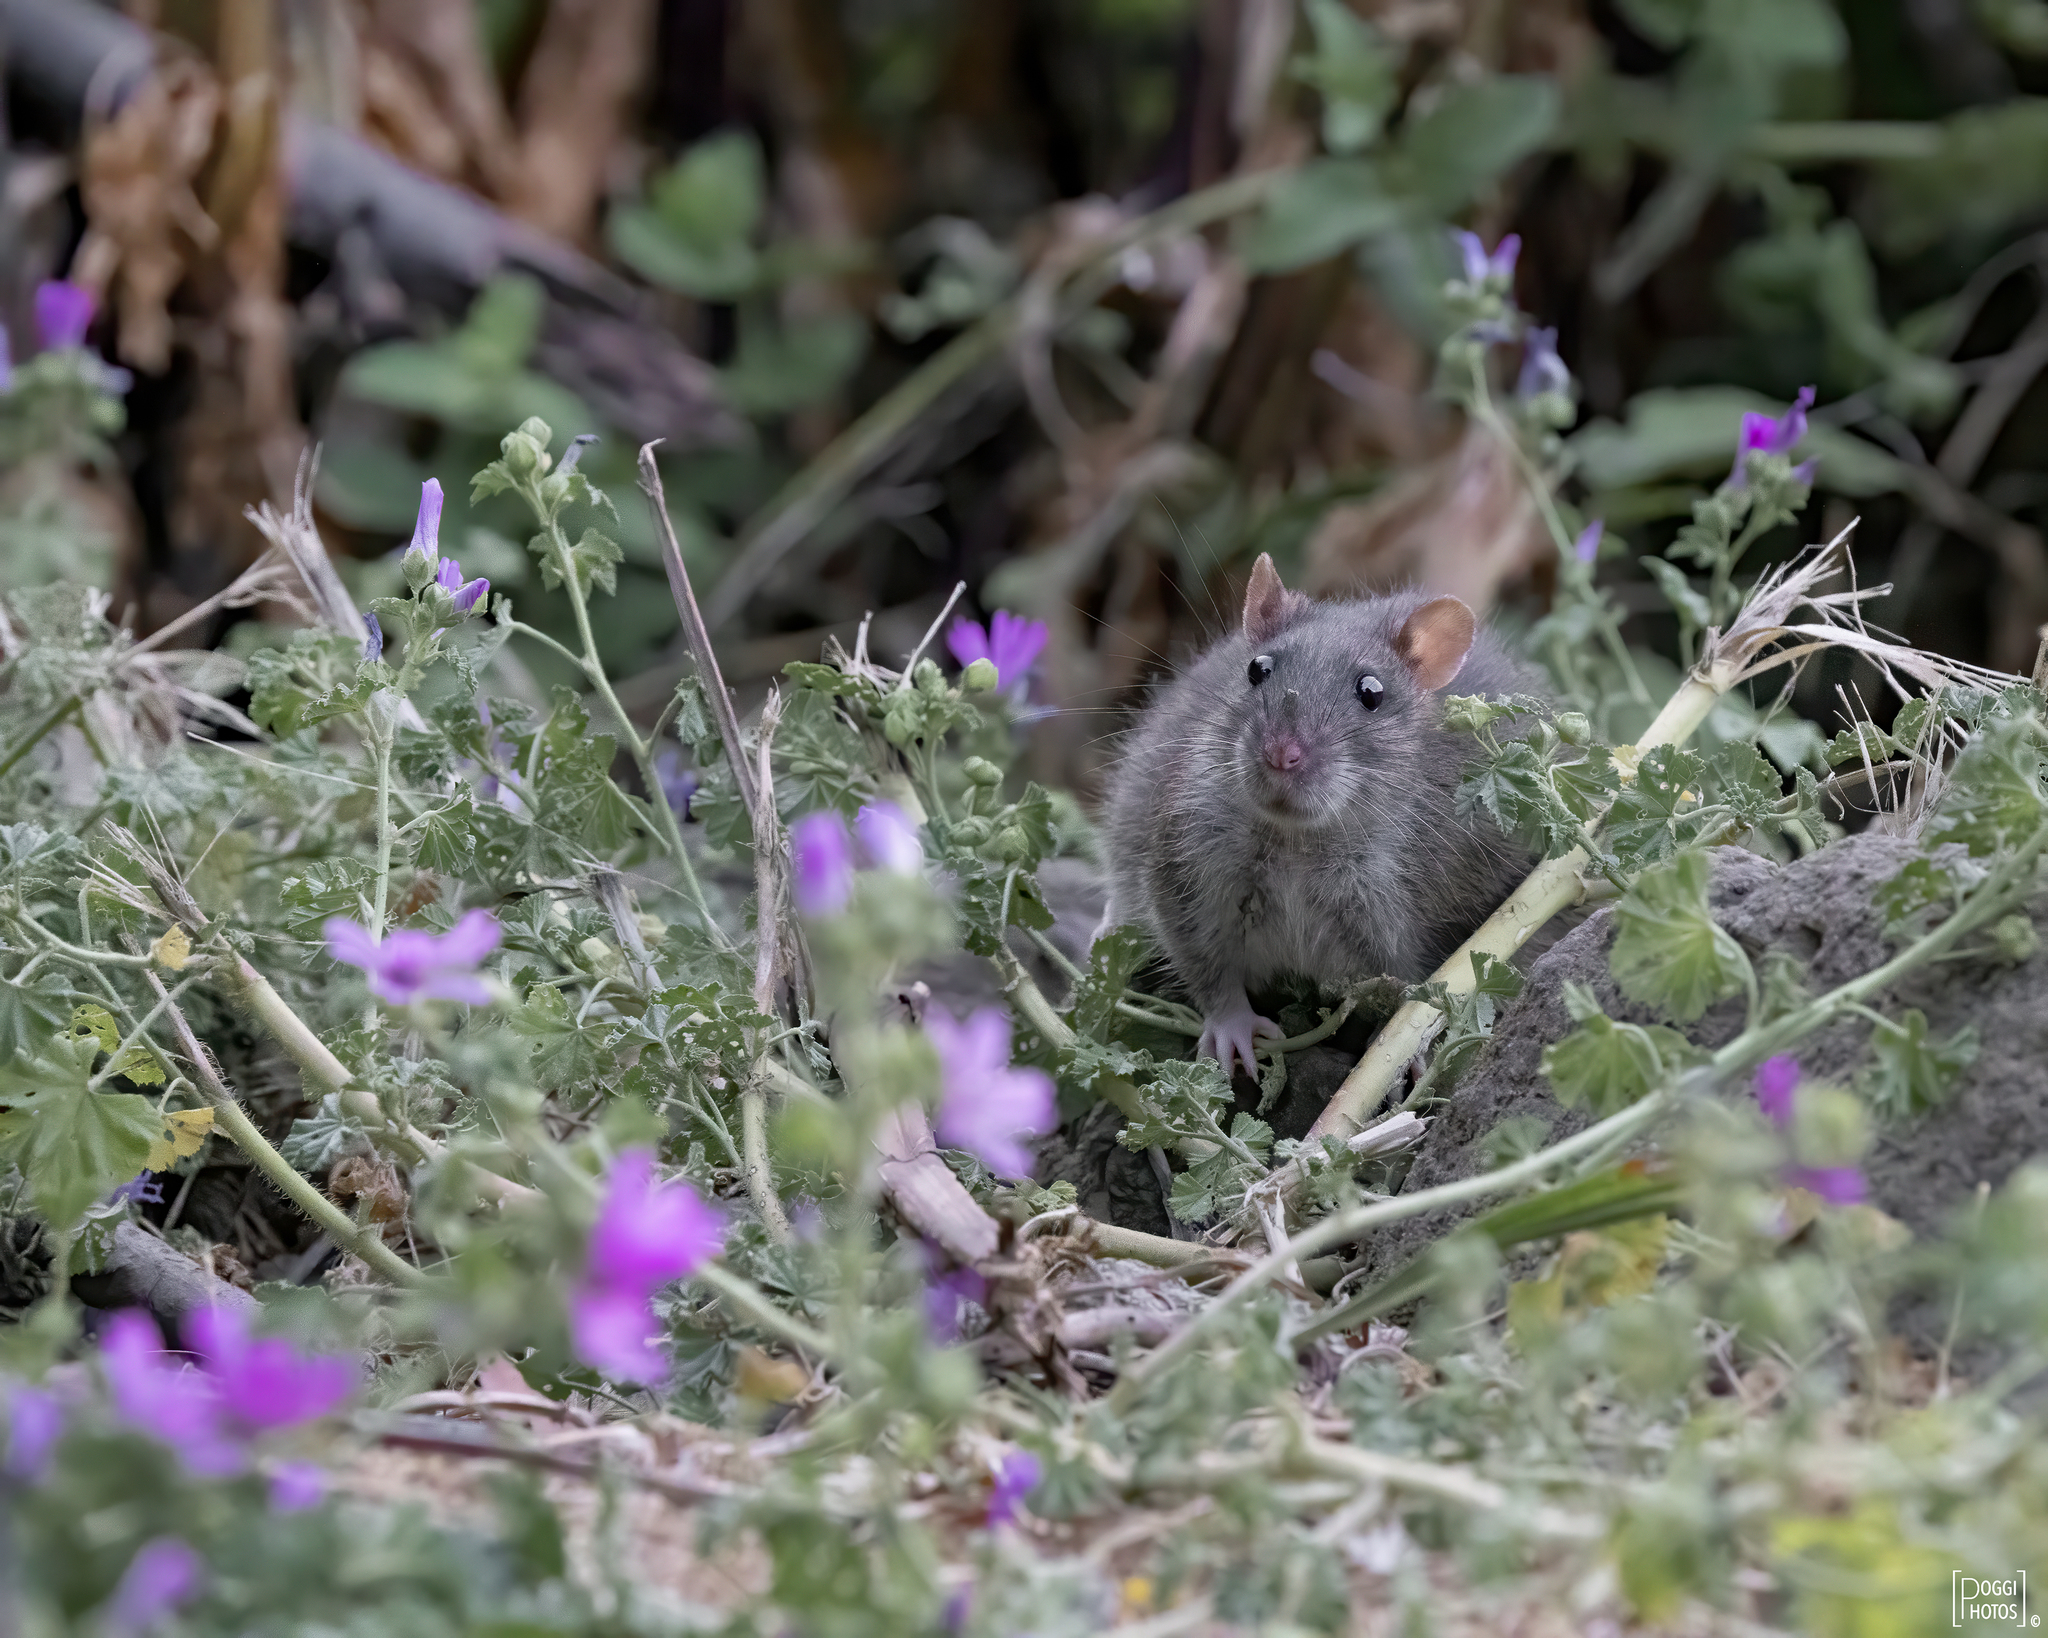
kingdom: Animalia
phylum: Chordata
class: Mammalia
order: Rodentia
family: Muridae
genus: Rattus
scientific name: Rattus norvegicus
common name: Brown rat
